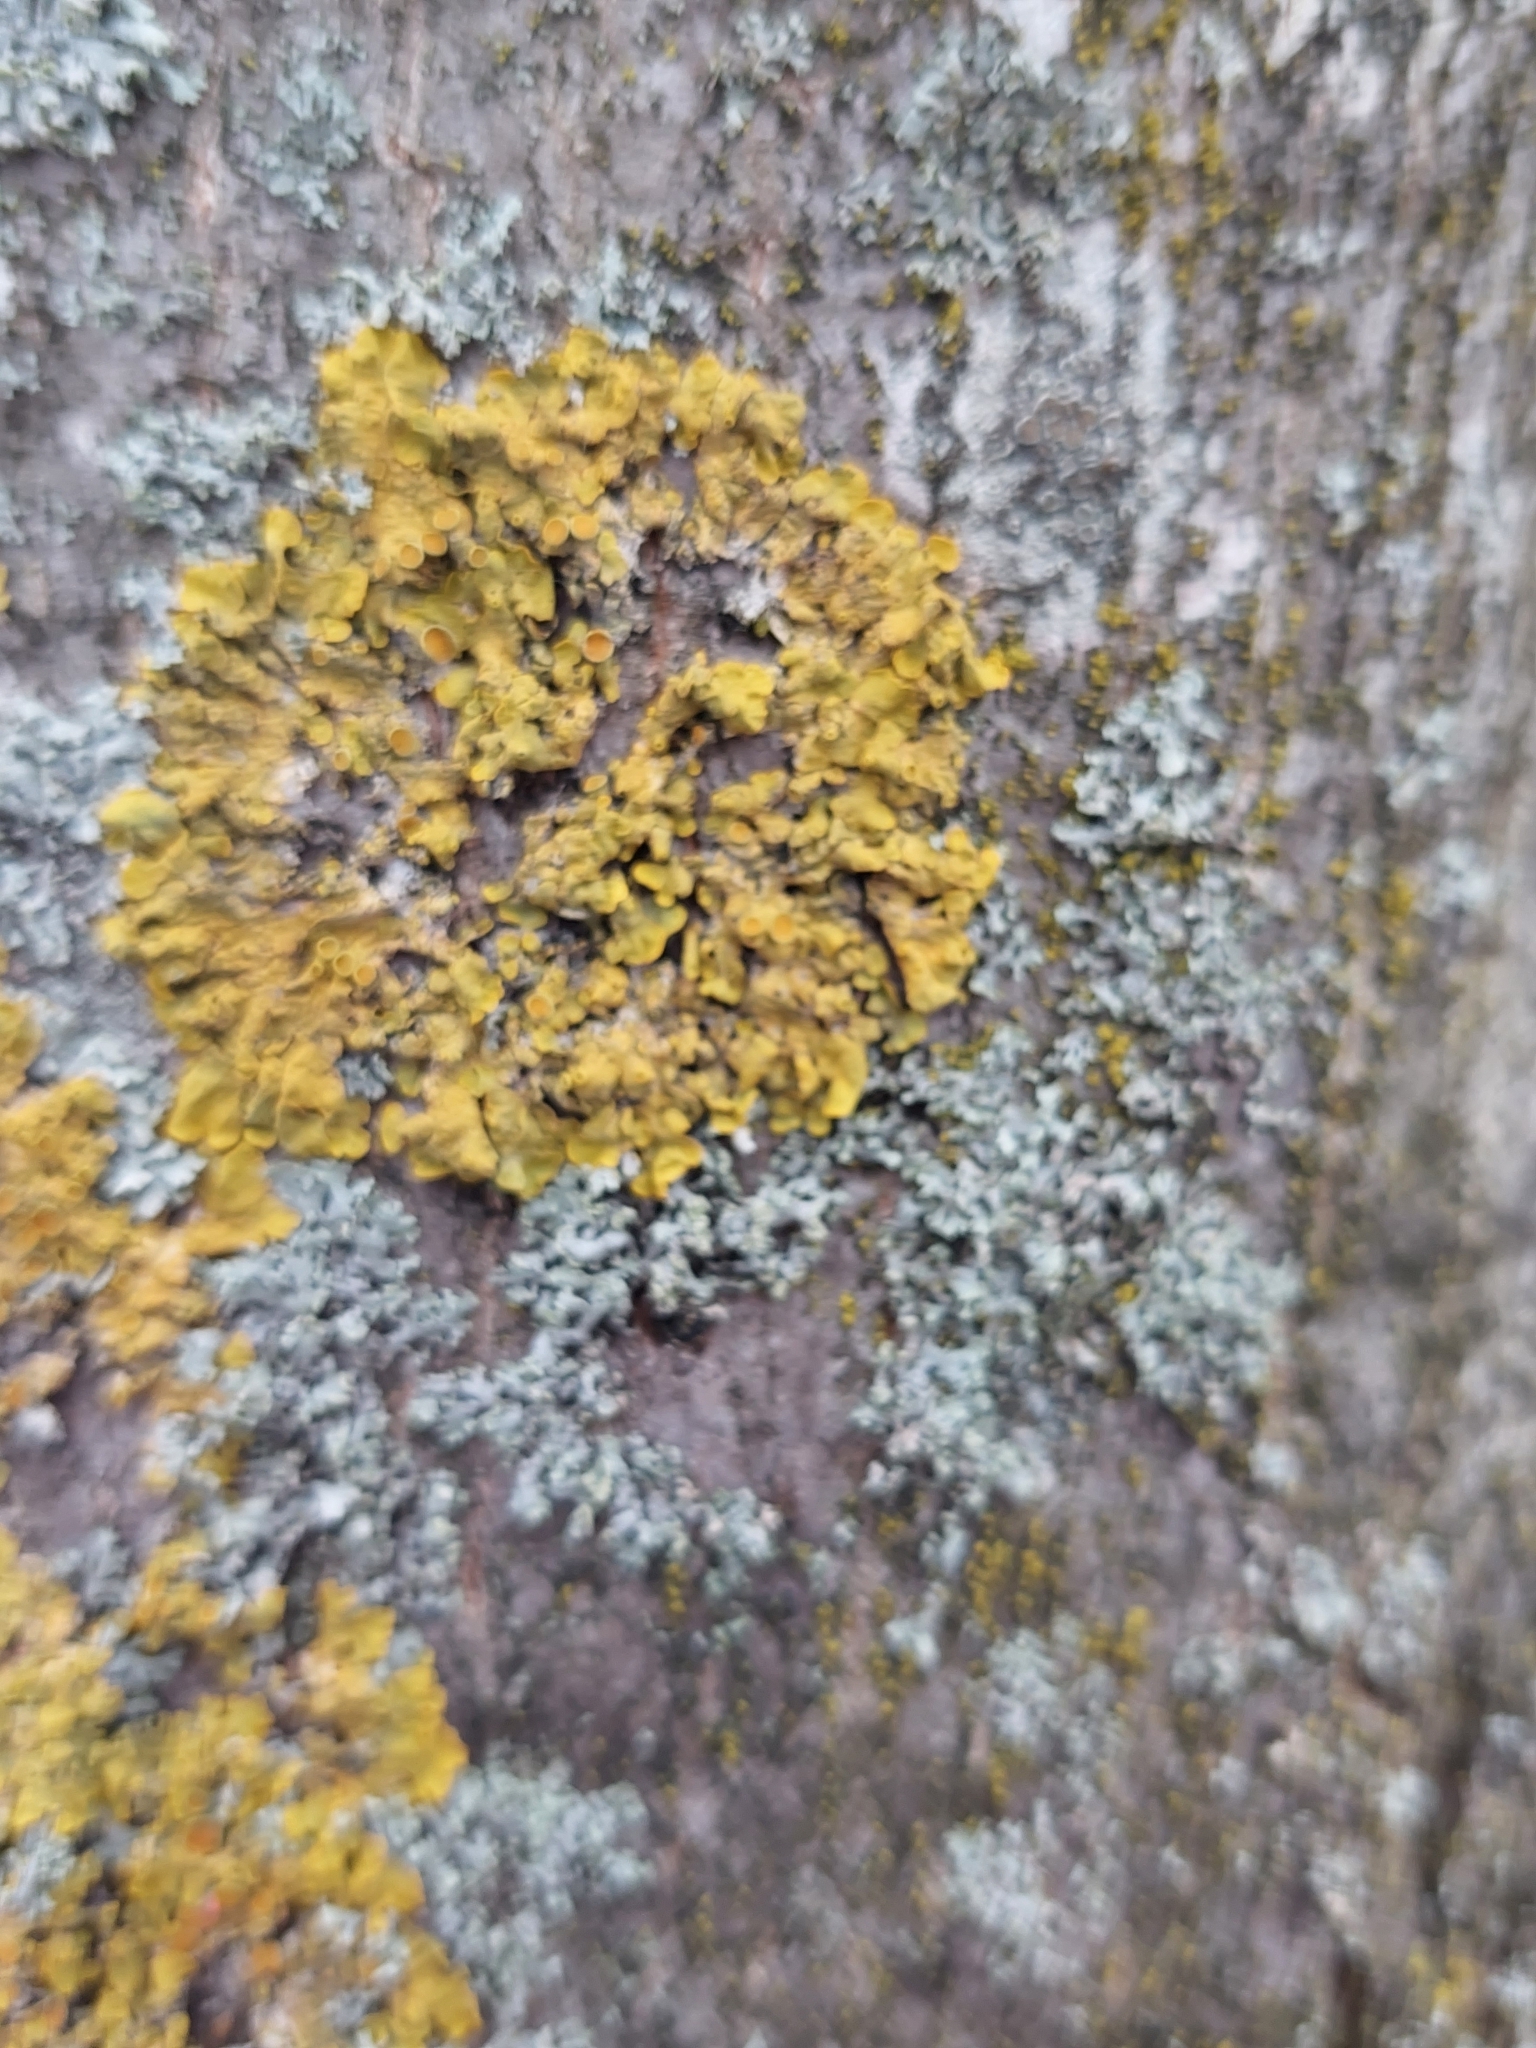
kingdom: Fungi
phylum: Ascomycota
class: Lecanoromycetes
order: Teloschistales
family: Teloschistaceae
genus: Xanthoria
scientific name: Xanthoria parietina
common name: Common orange lichen
